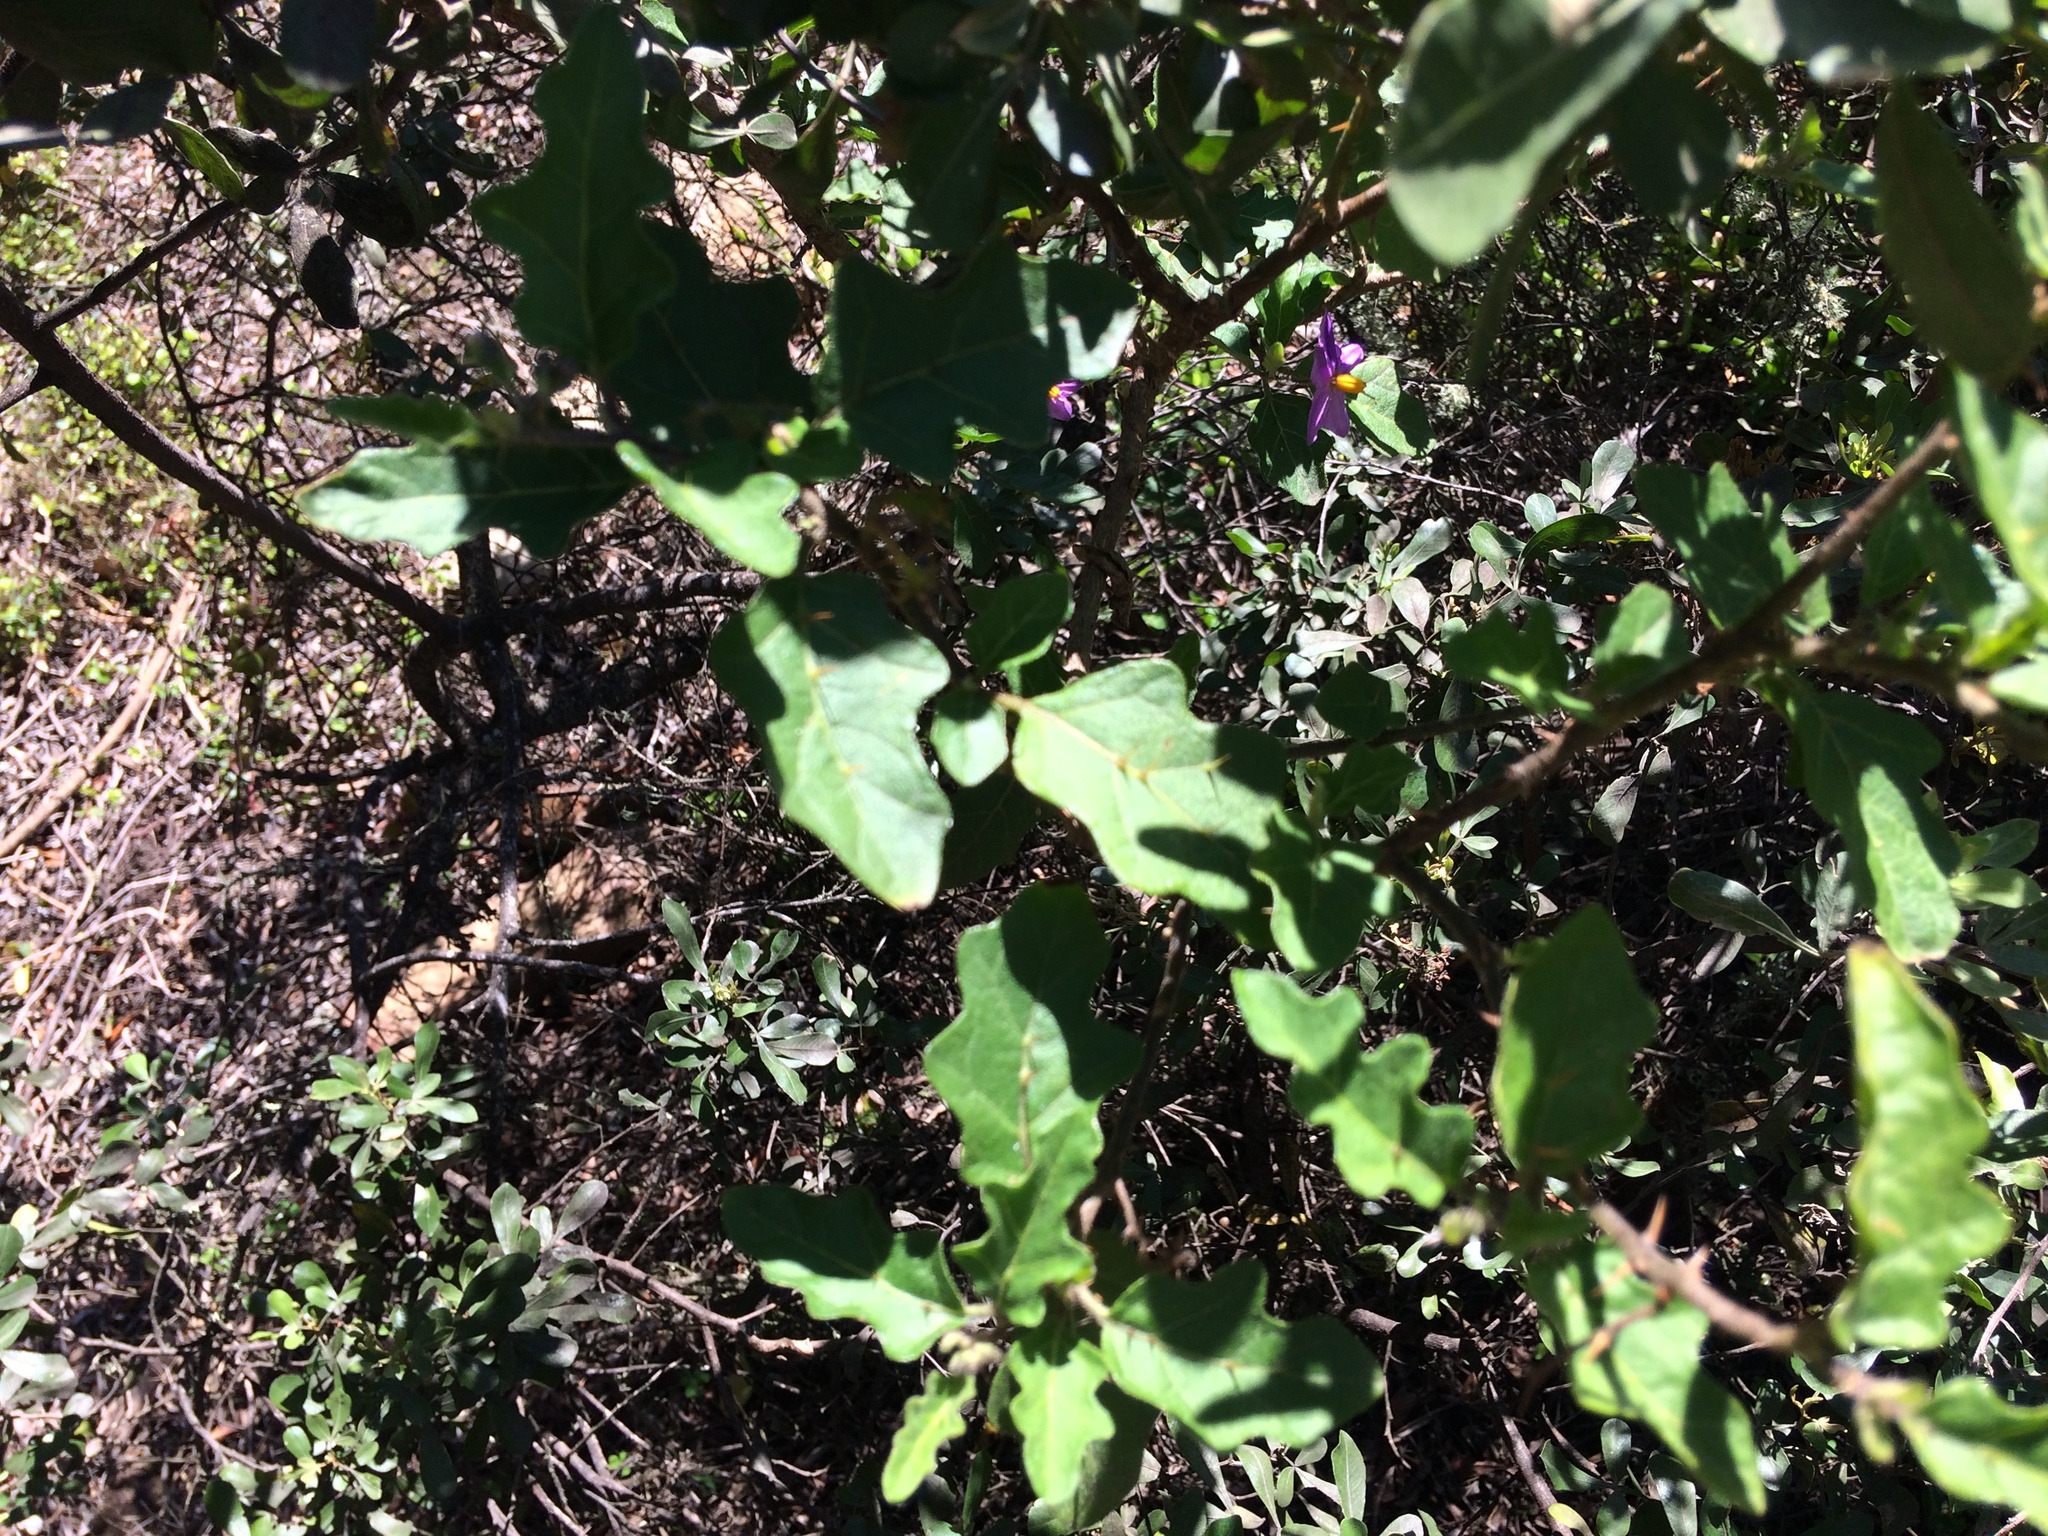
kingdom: Plantae
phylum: Tracheophyta
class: Magnoliopsida
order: Solanales
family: Solanaceae
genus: Solanum
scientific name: Solanum rubetorum
